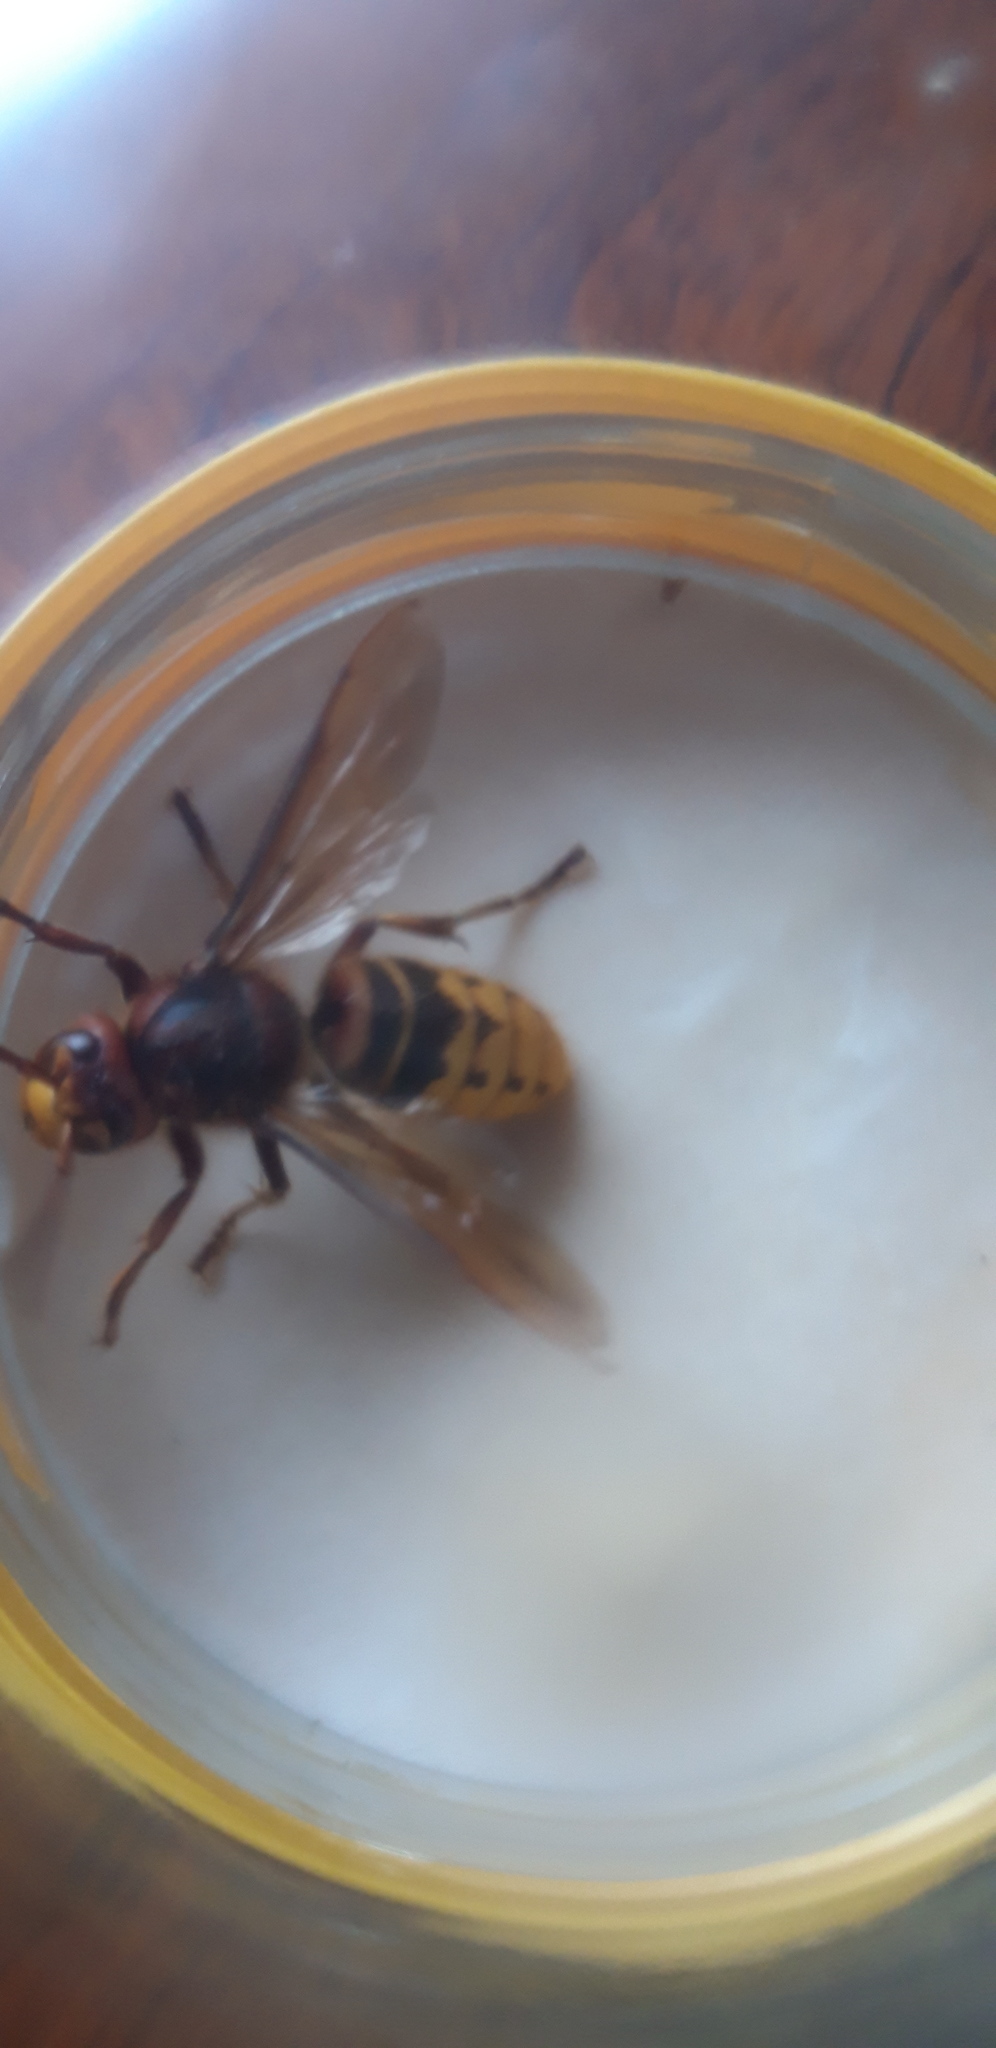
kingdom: Animalia
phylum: Arthropoda
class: Insecta
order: Hymenoptera
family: Vespidae
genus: Vespa
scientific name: Vespa crabro
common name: Hornet
